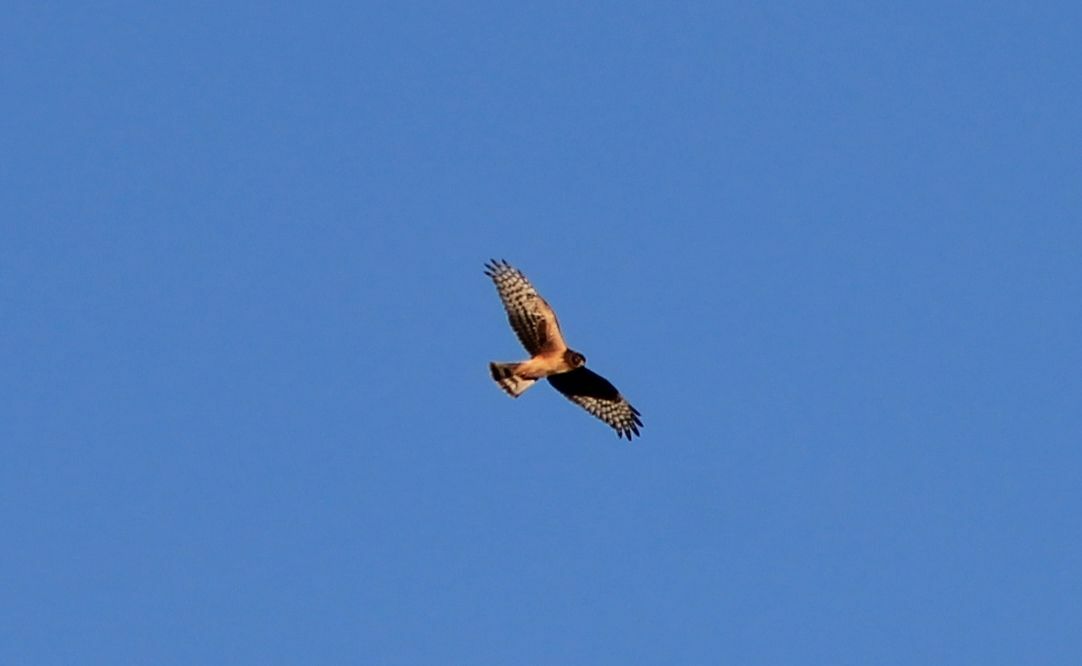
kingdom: Animalia
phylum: Chordata
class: Aves
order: Accipitriformes
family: Accipitridae
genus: Circus
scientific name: Circus cyaneus
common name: Hen harrier
